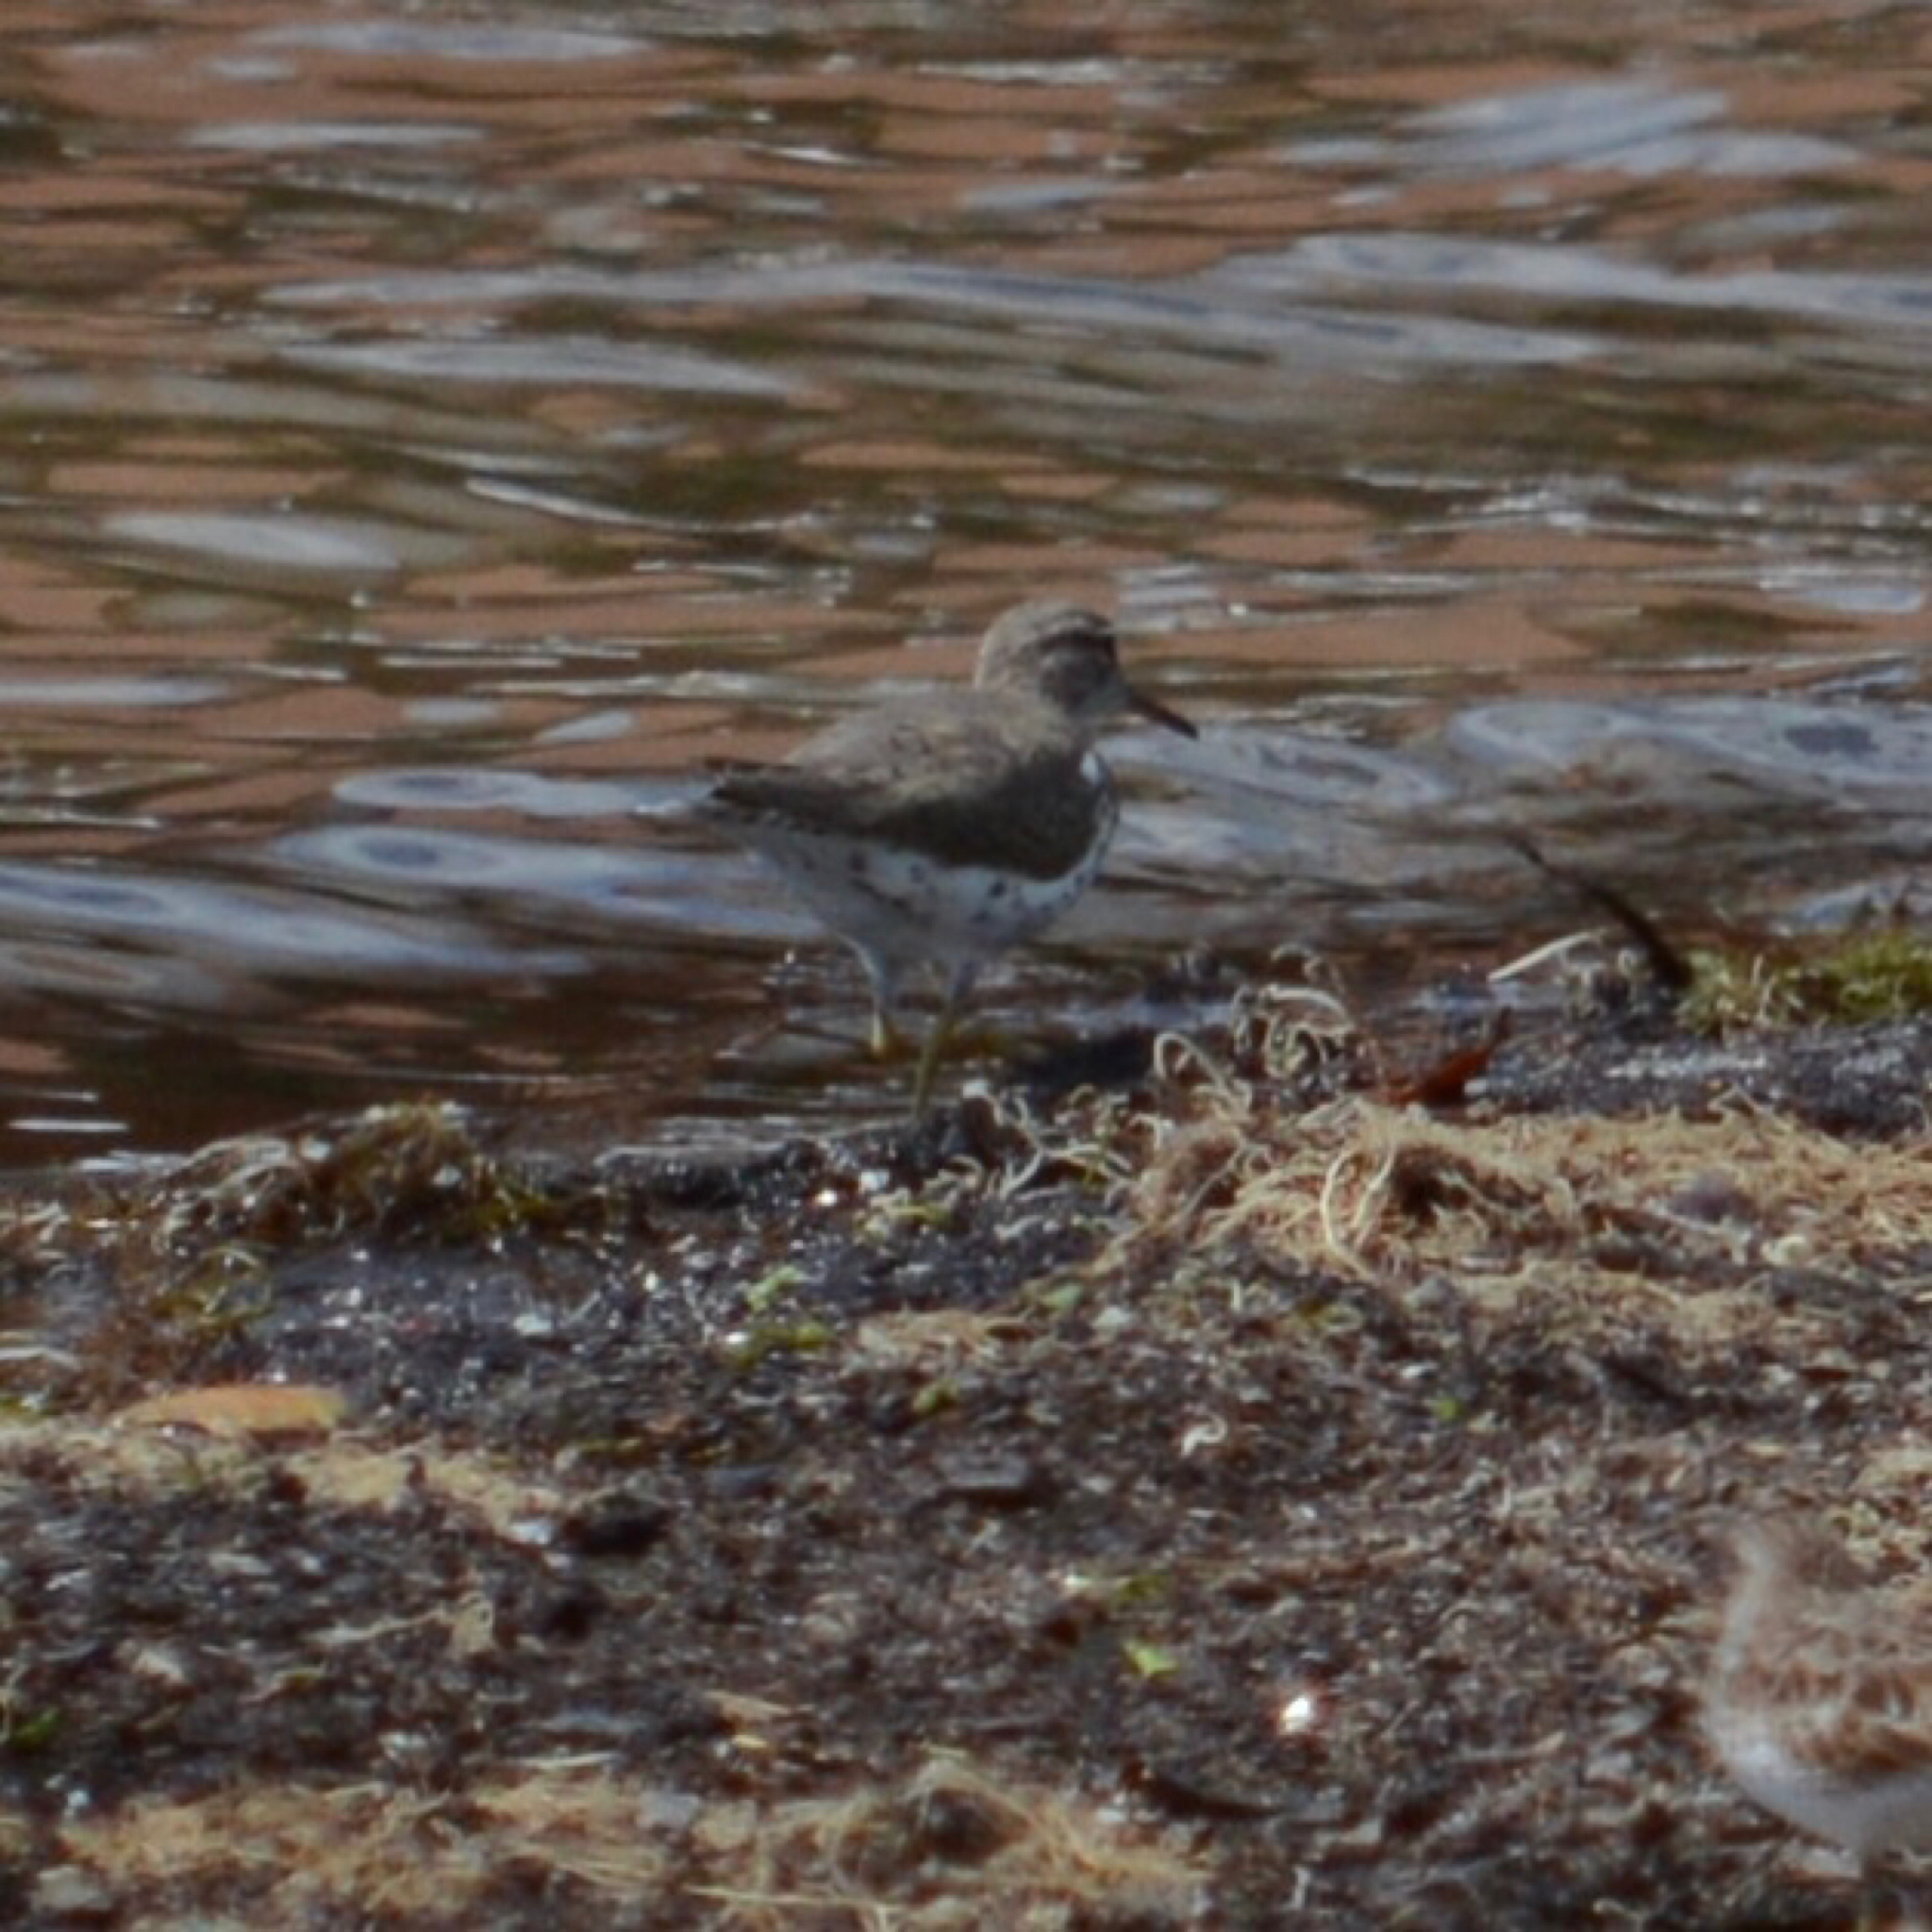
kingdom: Animalia
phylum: Chordata
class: Aves
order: Charadriiformes
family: Scolopacidae
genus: Actitis
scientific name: Actitis macularius
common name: Spotted sandpiper
